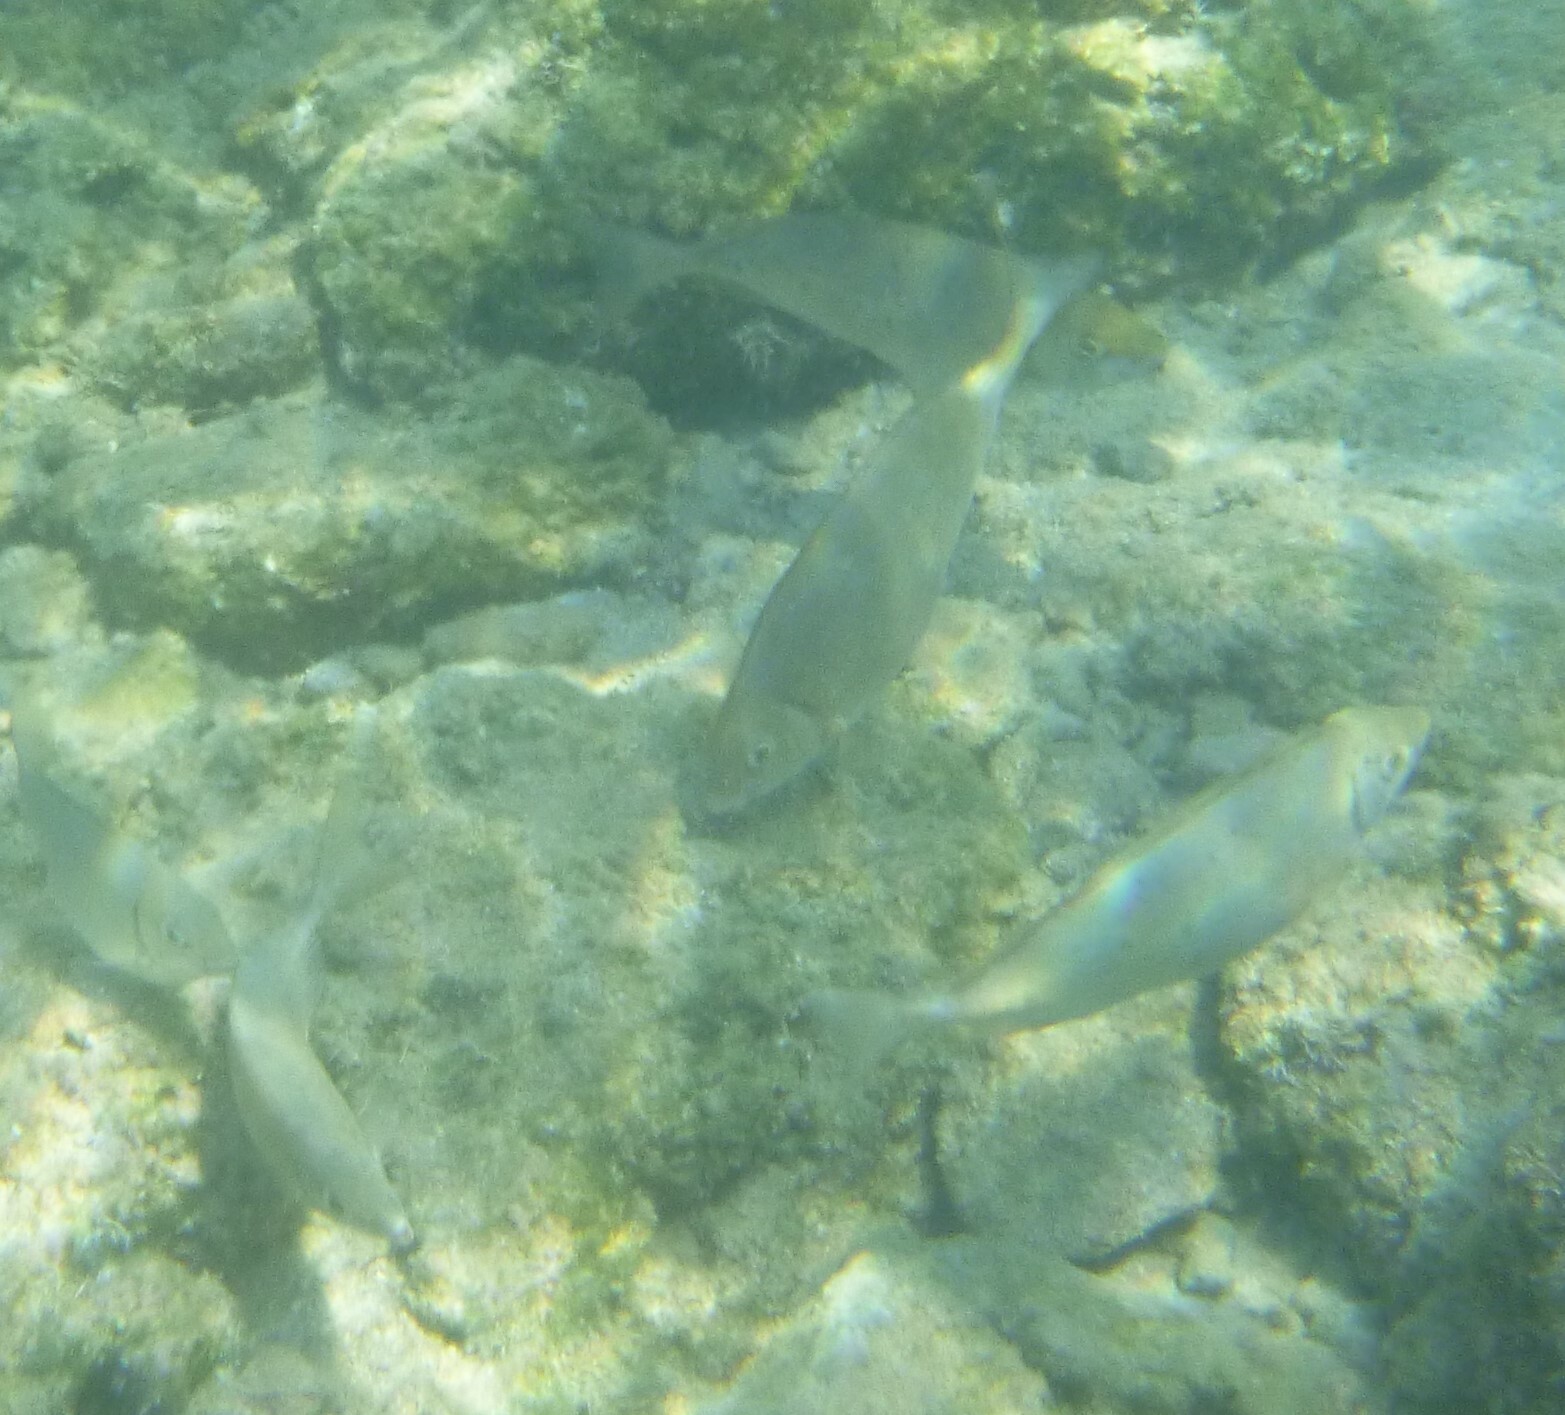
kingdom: Animalia
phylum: Chordata
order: Perciformes
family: Siganidae
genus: Siganus
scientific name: Siganus rivulatus
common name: Marbled spinefoot
